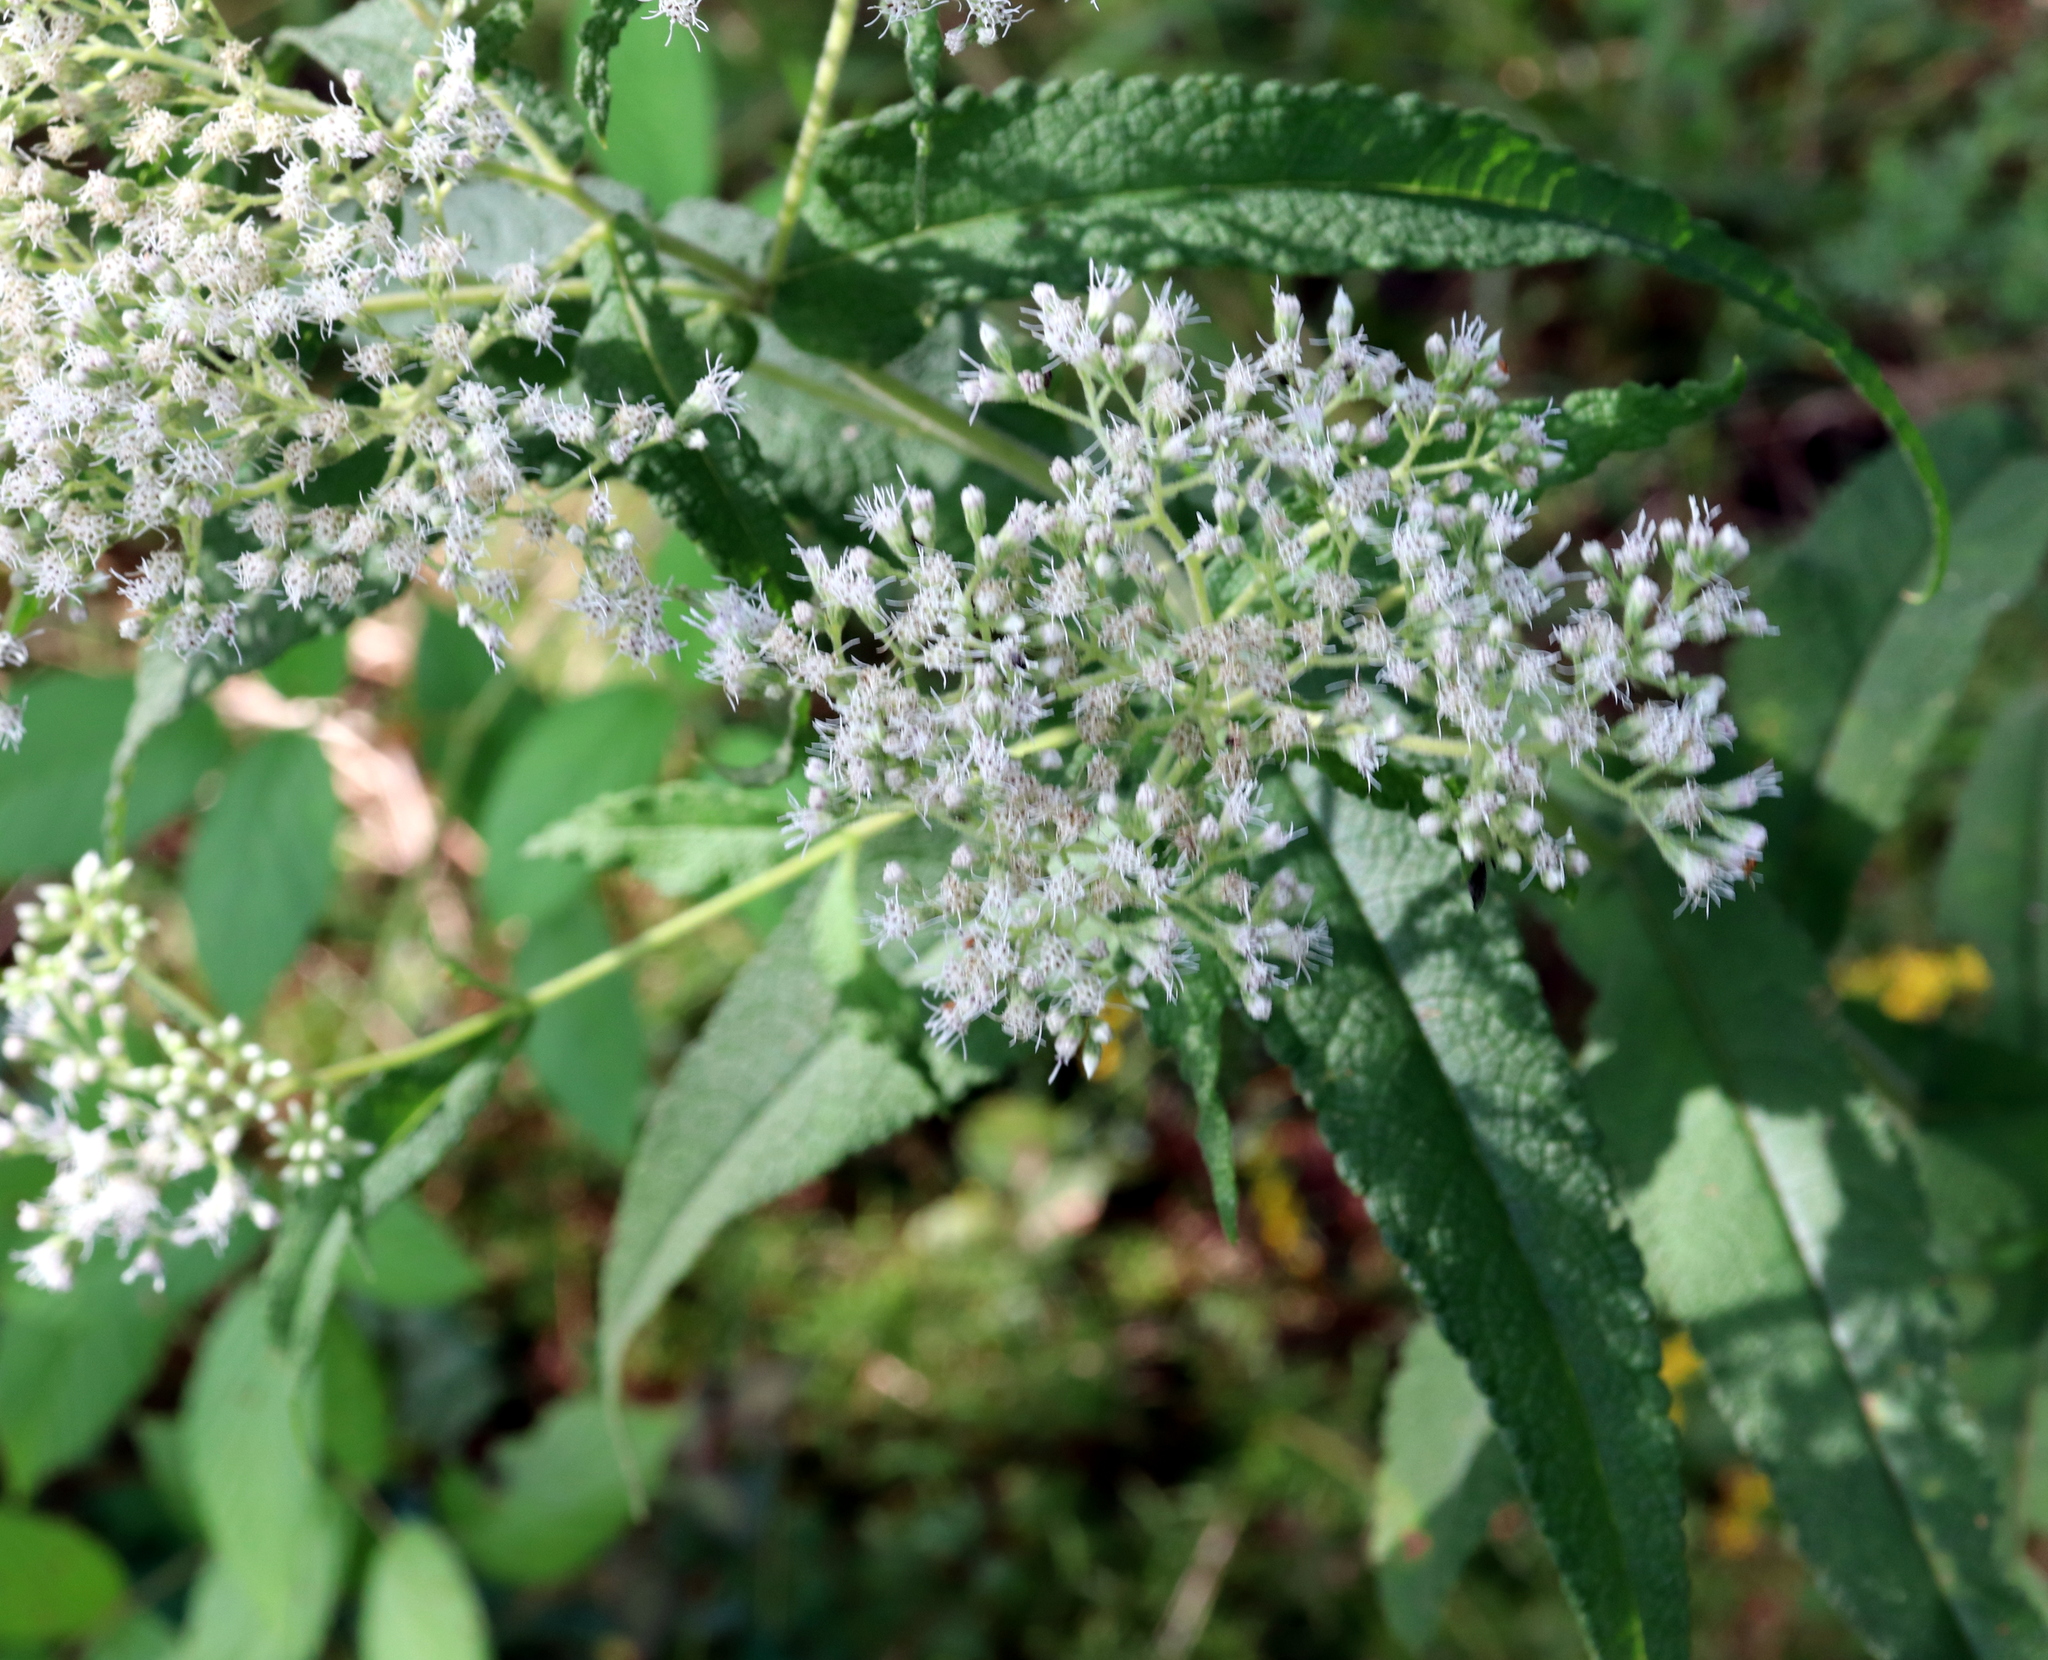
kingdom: Plantae
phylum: Tracheophyta
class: Magnoliopsida
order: Asterales
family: Asteraceae
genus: Eupatorium
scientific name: Eupatorium perfoliatum
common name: Boneset
